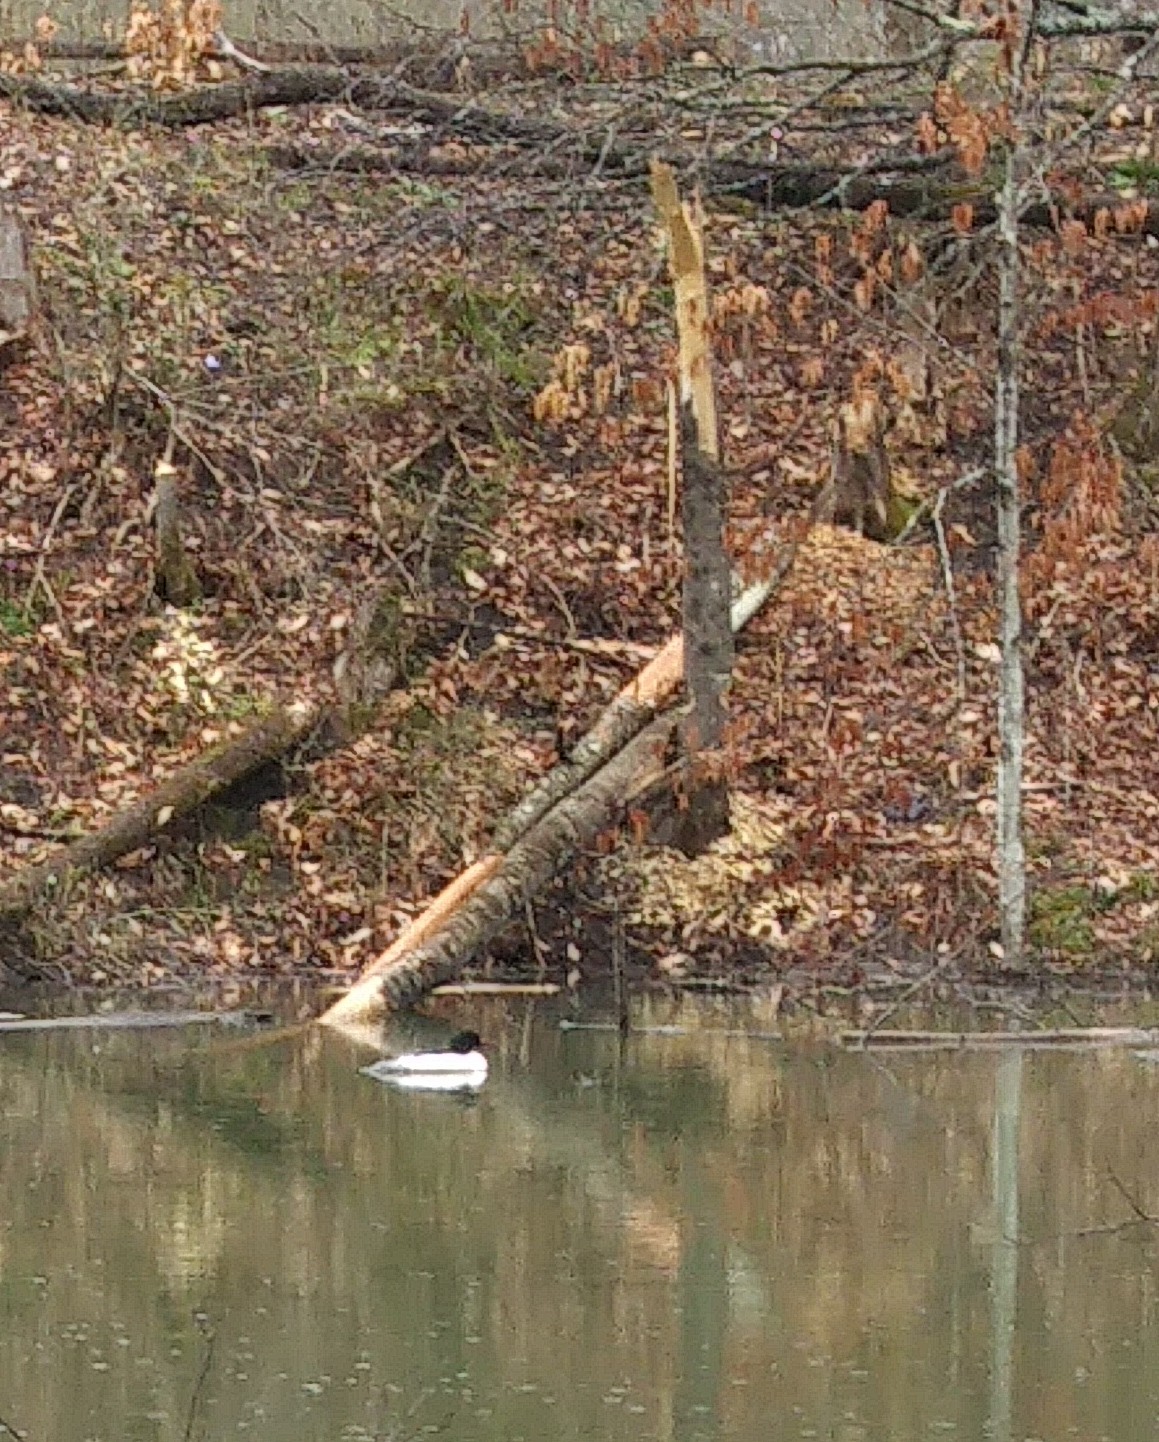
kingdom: Animalia
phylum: Chordata
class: Aves
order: Anseriformes
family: Anatidae
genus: Mergus
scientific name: Mergus merganser
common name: Common merganser
